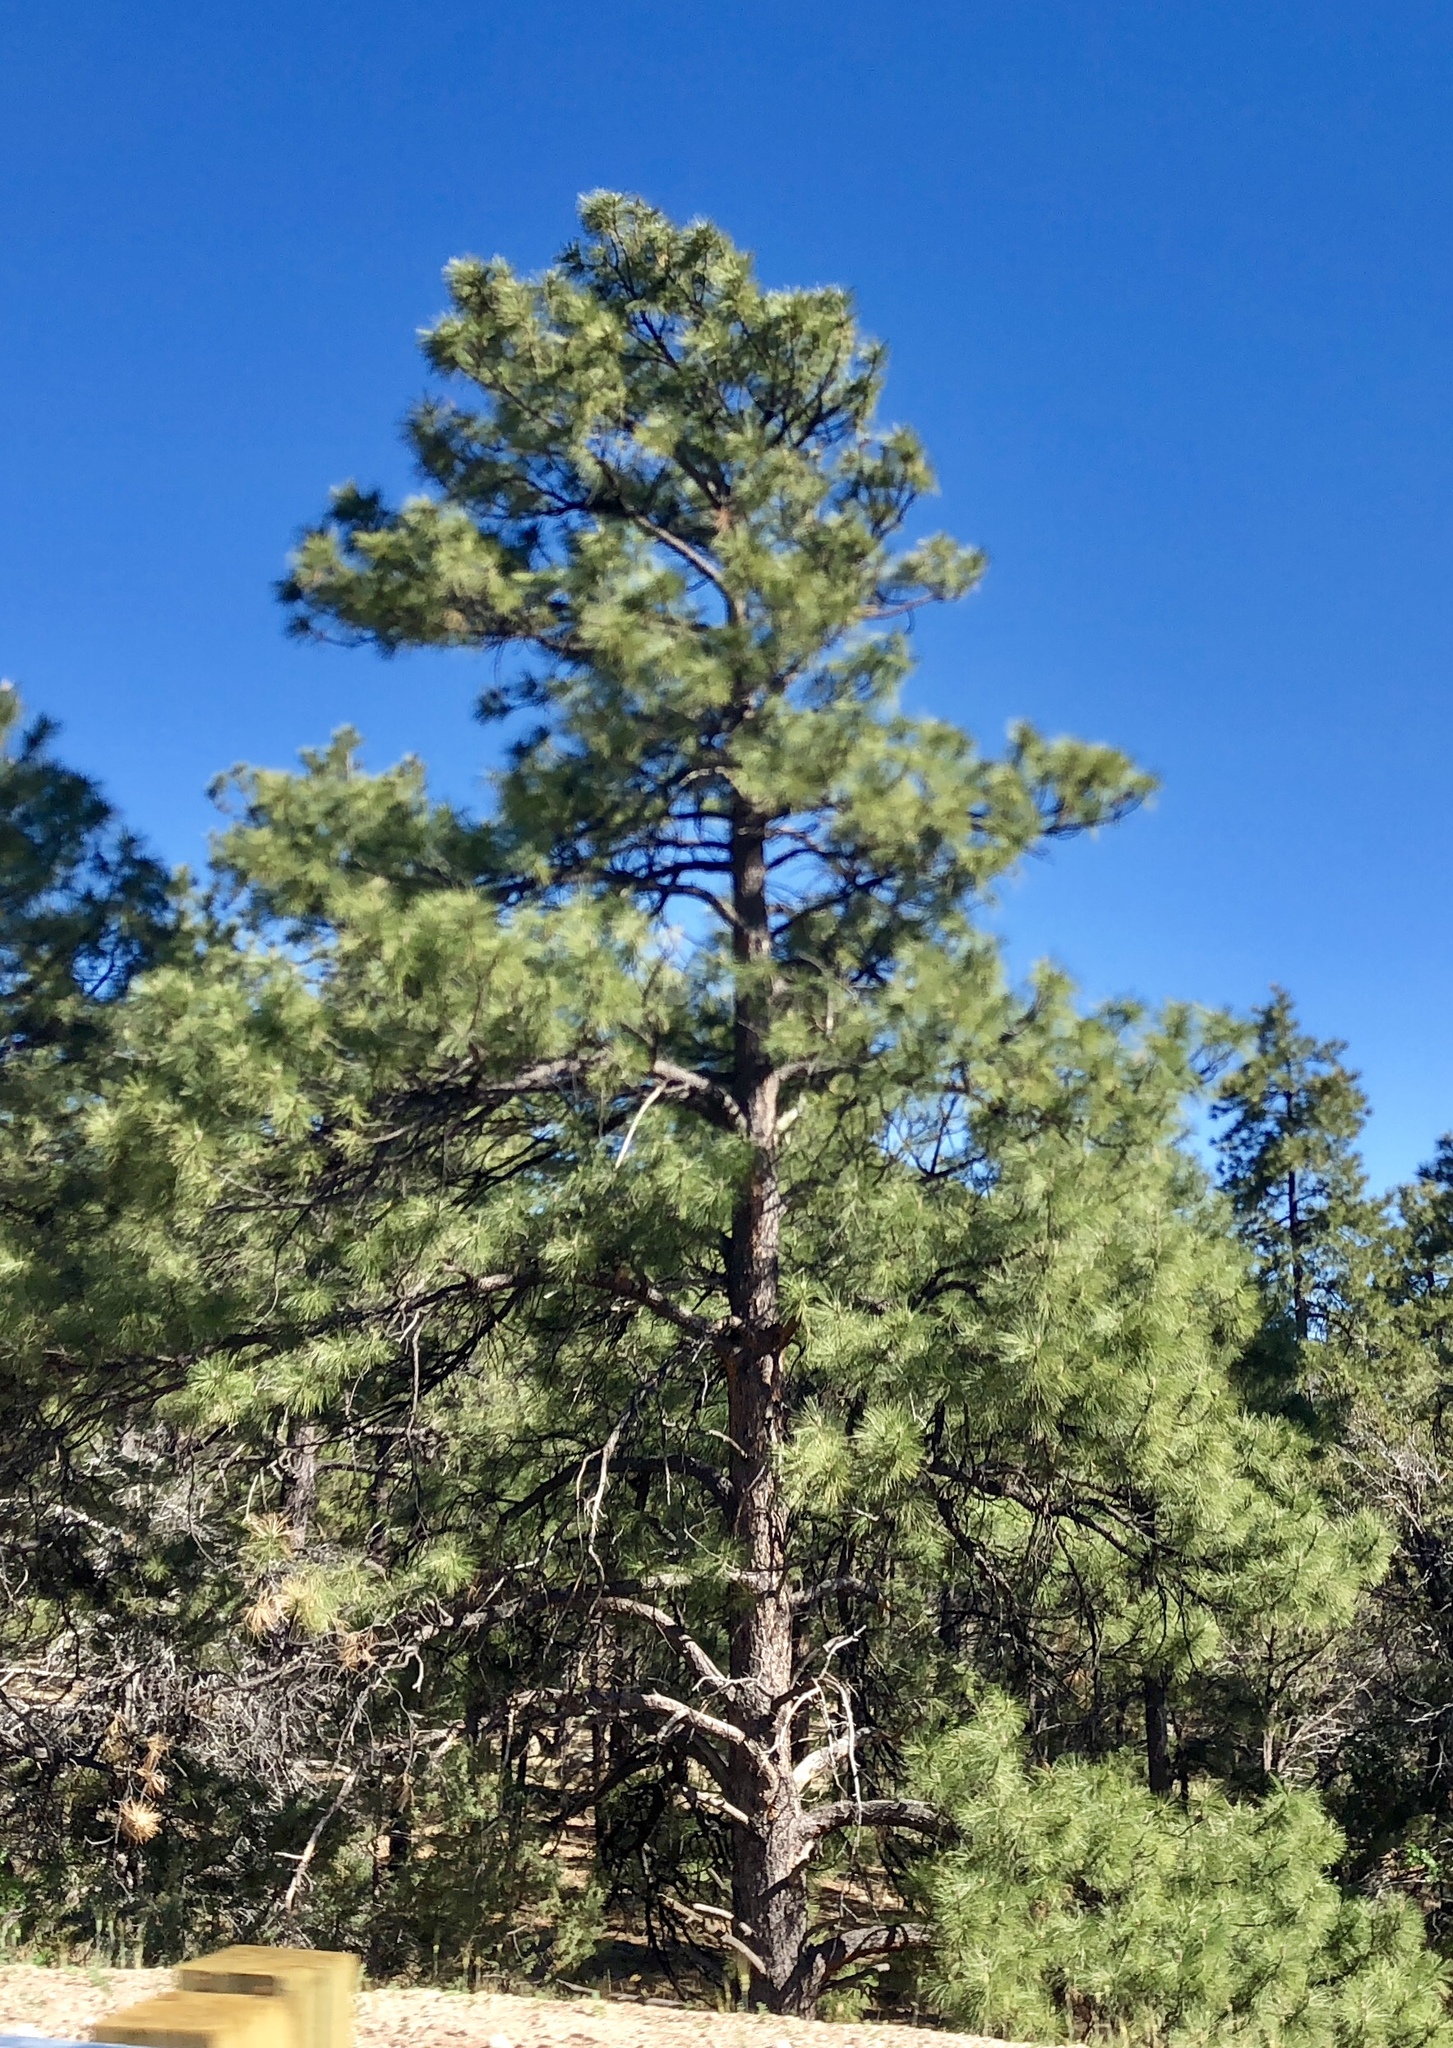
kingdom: Plantae
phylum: Tracheophyta
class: Pinopsida
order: Pinales
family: Pinaceae
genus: Pinus
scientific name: Pinus ponderosa
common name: Western yellow-pine
